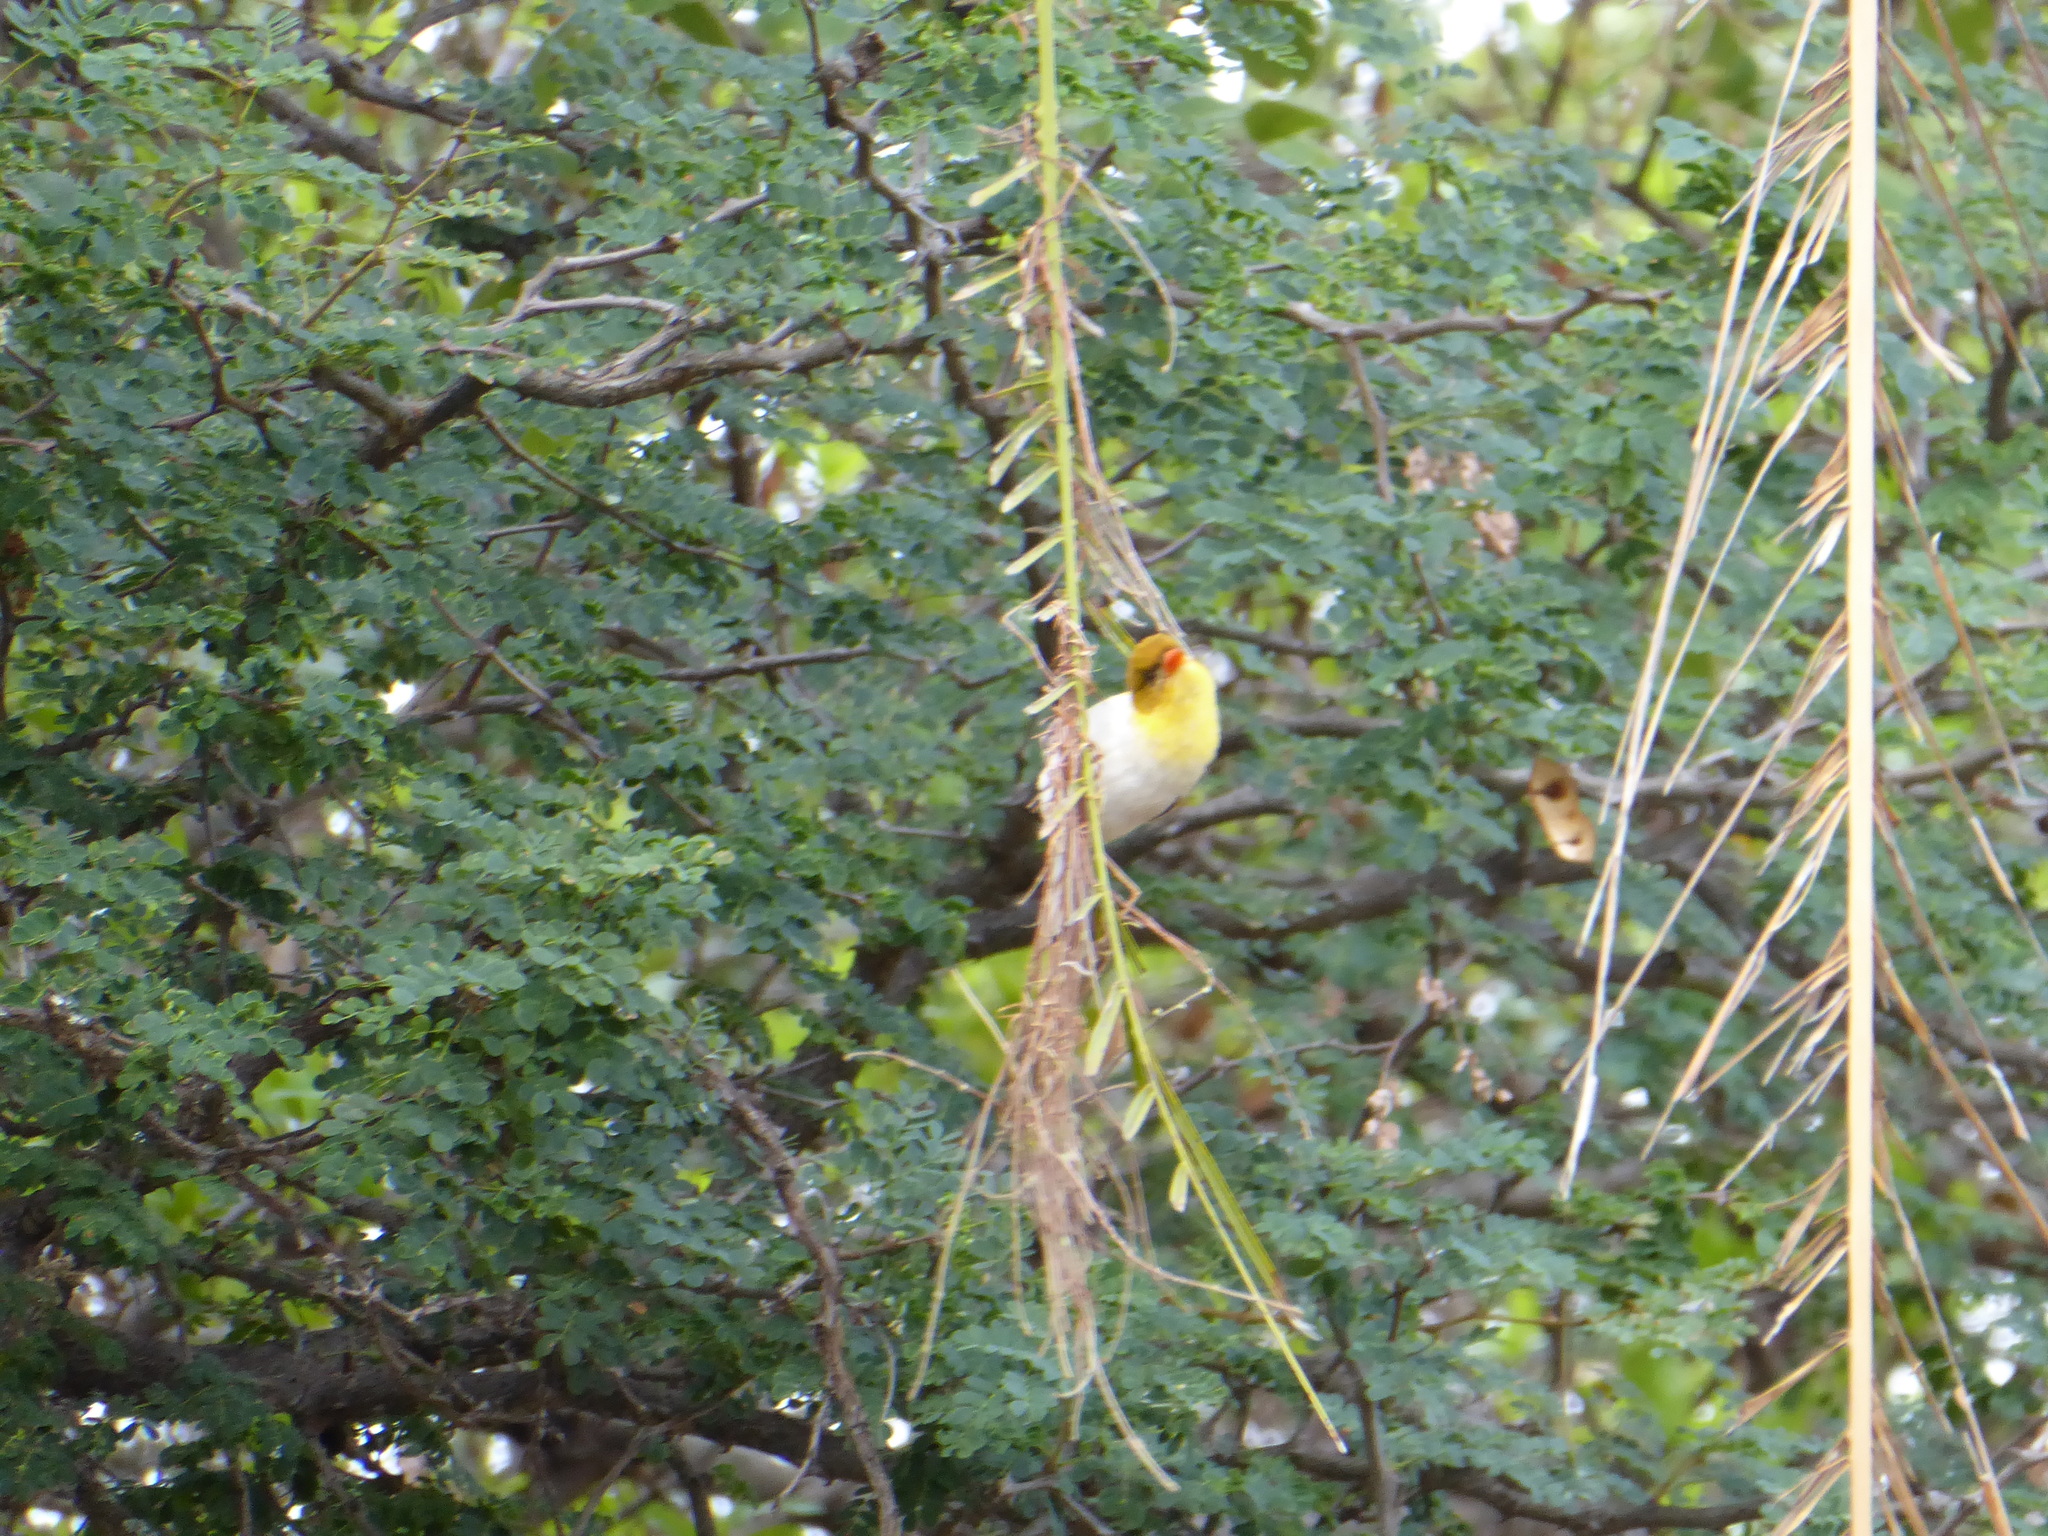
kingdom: Animalia
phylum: Chordata
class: Aves
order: Passeriformes
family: Ploceidae
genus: Anaplectes
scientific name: Anaplectes rubriceps
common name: Red-headed weaver
